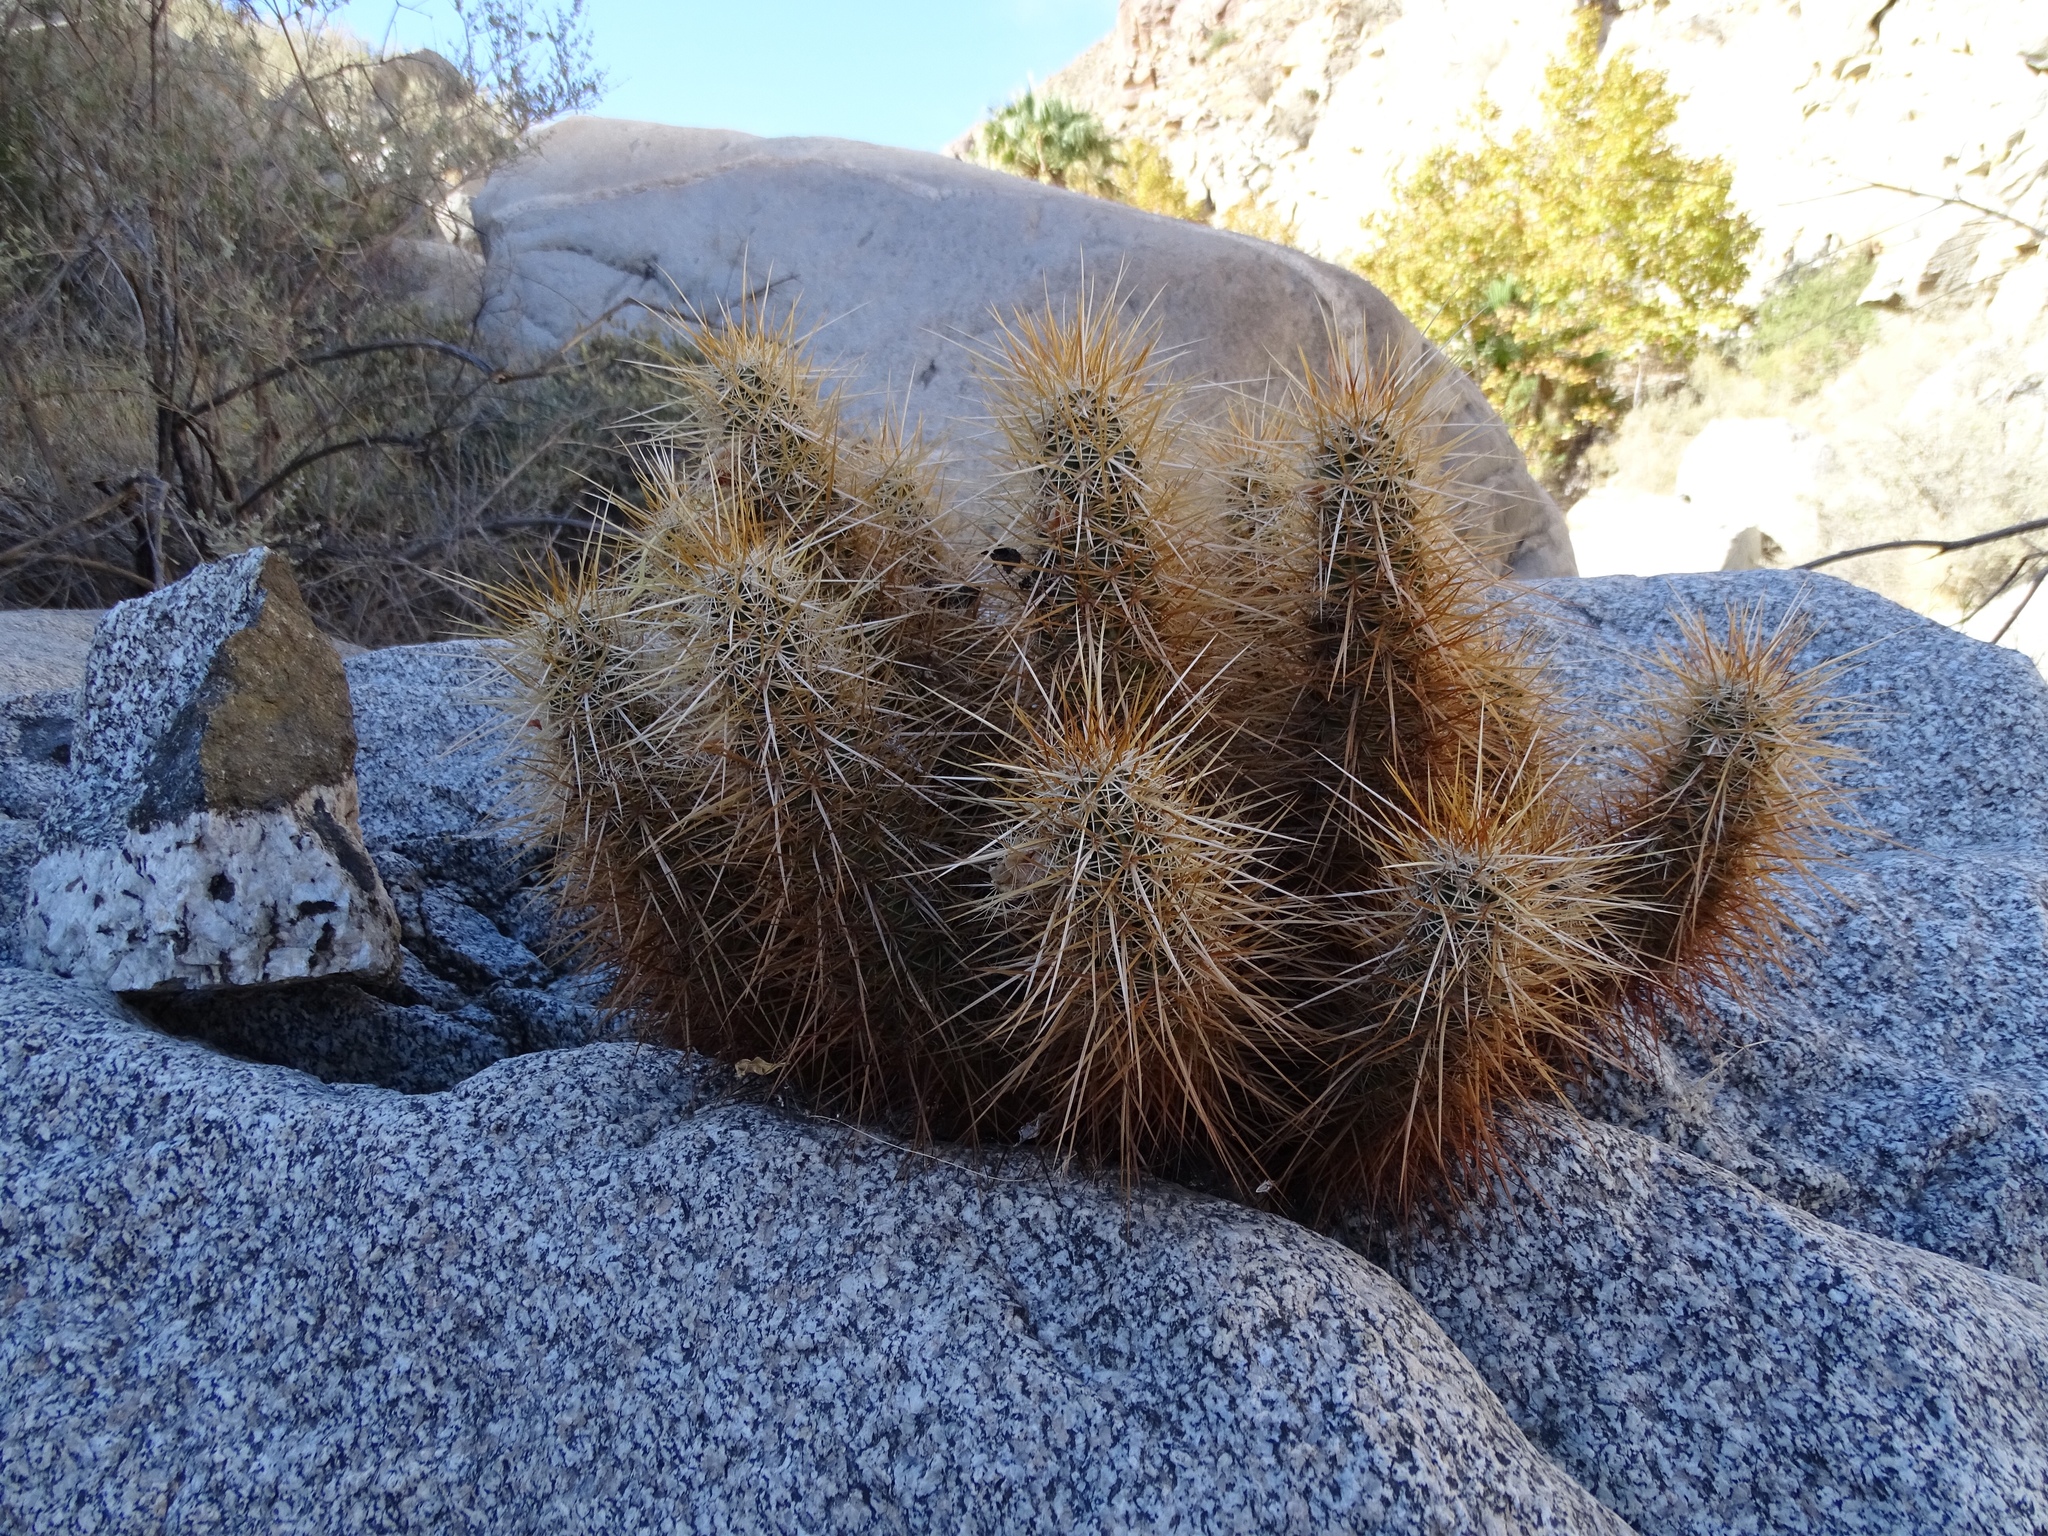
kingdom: Plantae
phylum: Tracheophyta
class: Magnoliopsida
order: Caryophyllales
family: Cactaceae
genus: Echinocereus
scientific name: Echinocereus engelmannii
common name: Engelmann's hedgehog cactus
